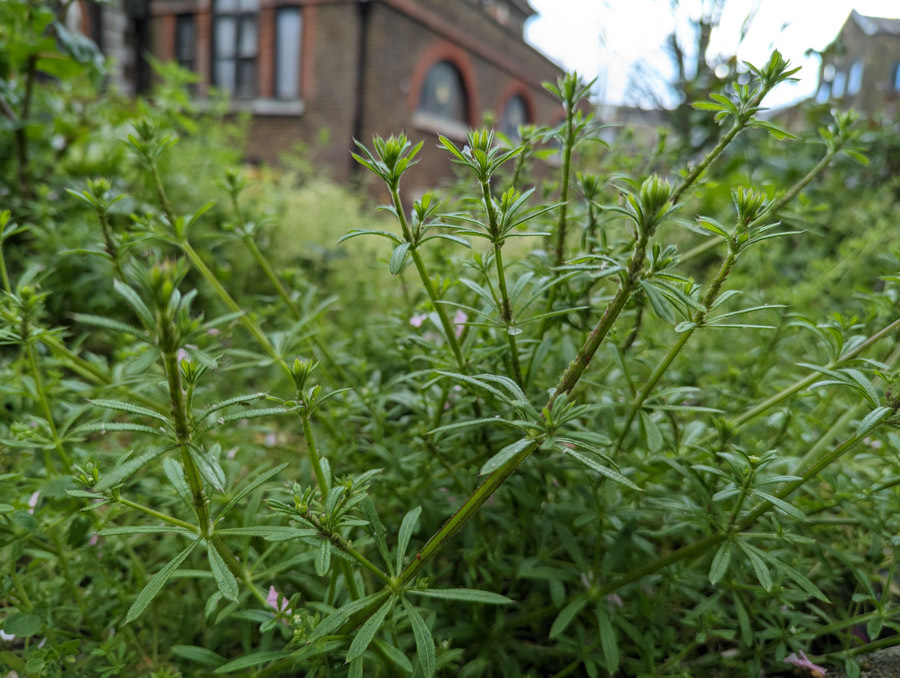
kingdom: Plantae
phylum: Tracheophyta
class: Magnoliopsida
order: Gentianales
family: Rubiaceae
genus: Galium
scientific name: Galium aparine
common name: Cleavers
